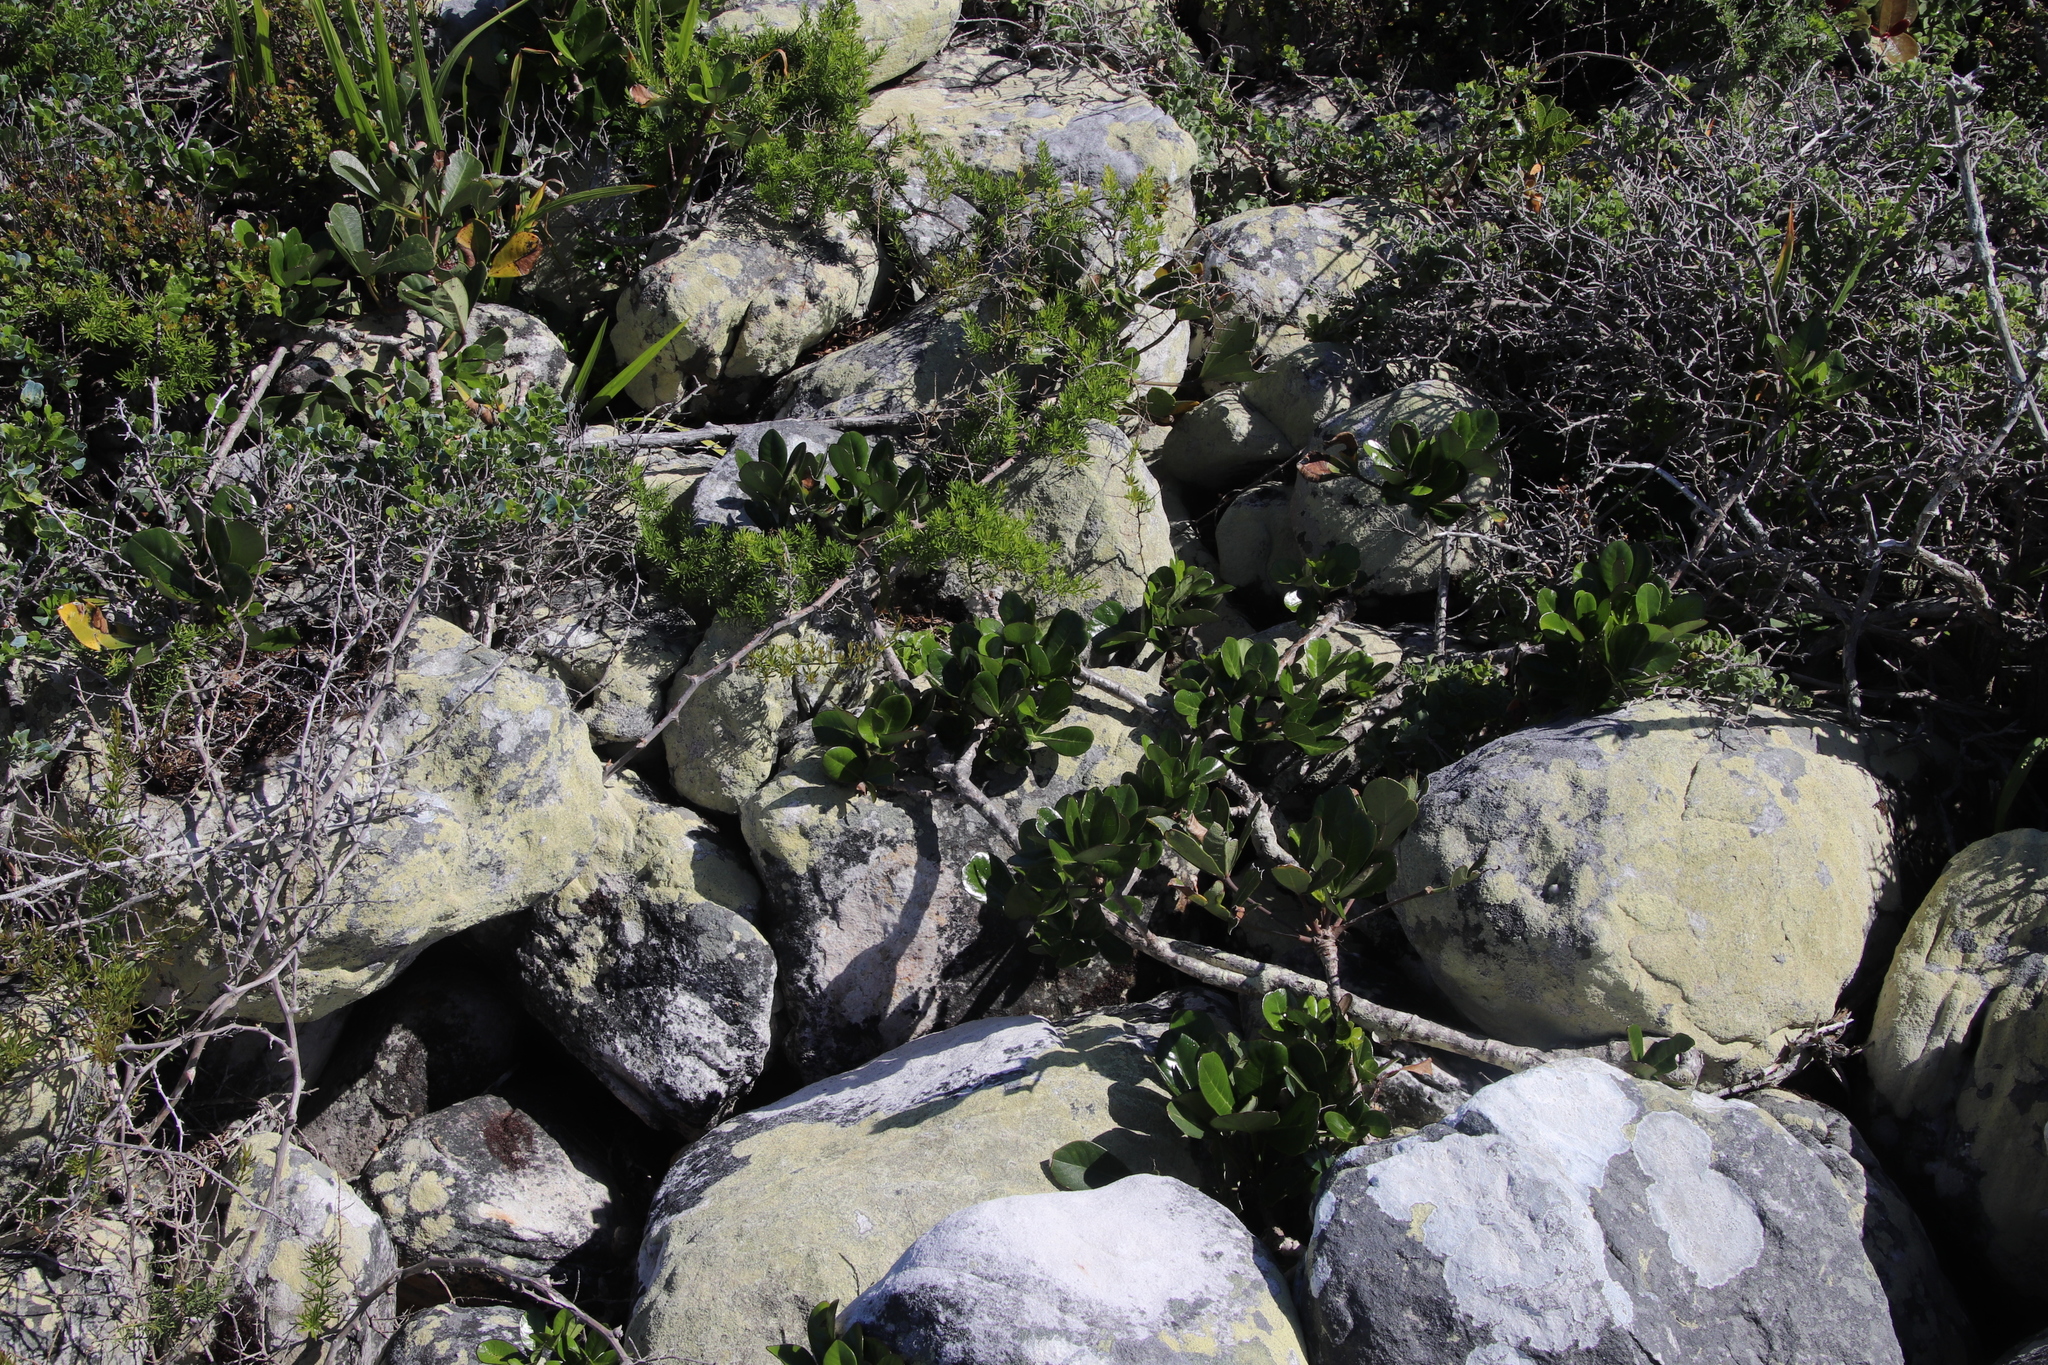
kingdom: Plantae
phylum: Tracheophyta
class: Magnoliopsida
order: Apiales
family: Araliaceae
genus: Cussonia
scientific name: Cussonia thyrsiflora
